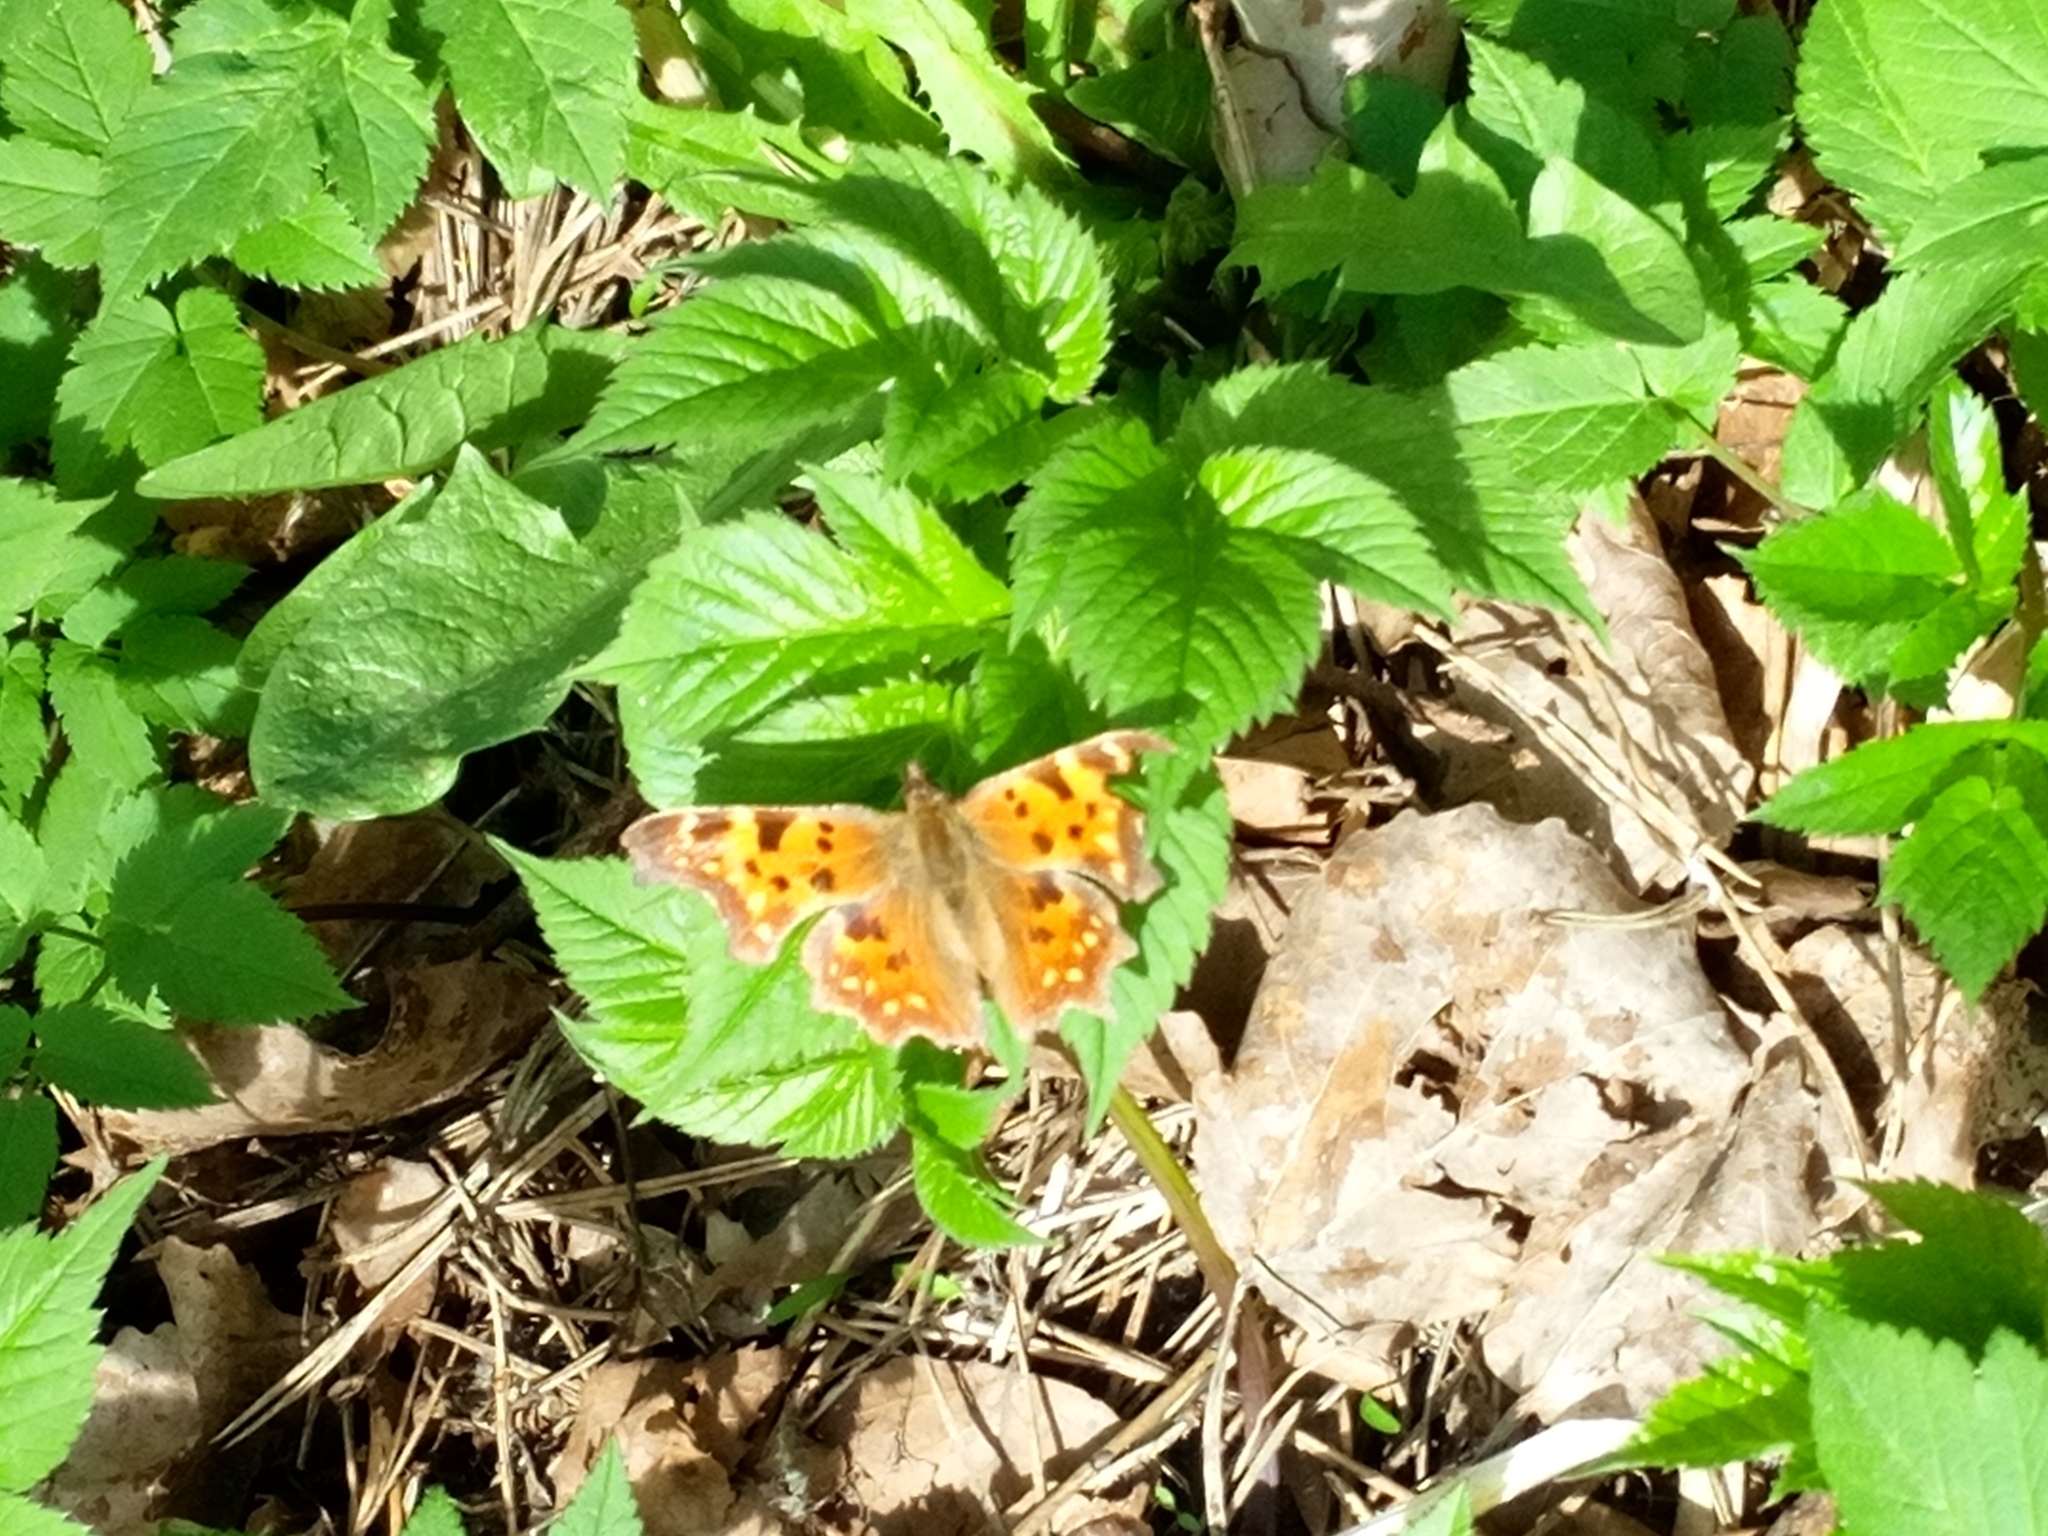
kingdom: Animalia
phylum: Arthropoda
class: Insecta
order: Lepidoptera
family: Nymphalidae
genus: Polygonia
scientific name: Polygonia c-album
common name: Comma
